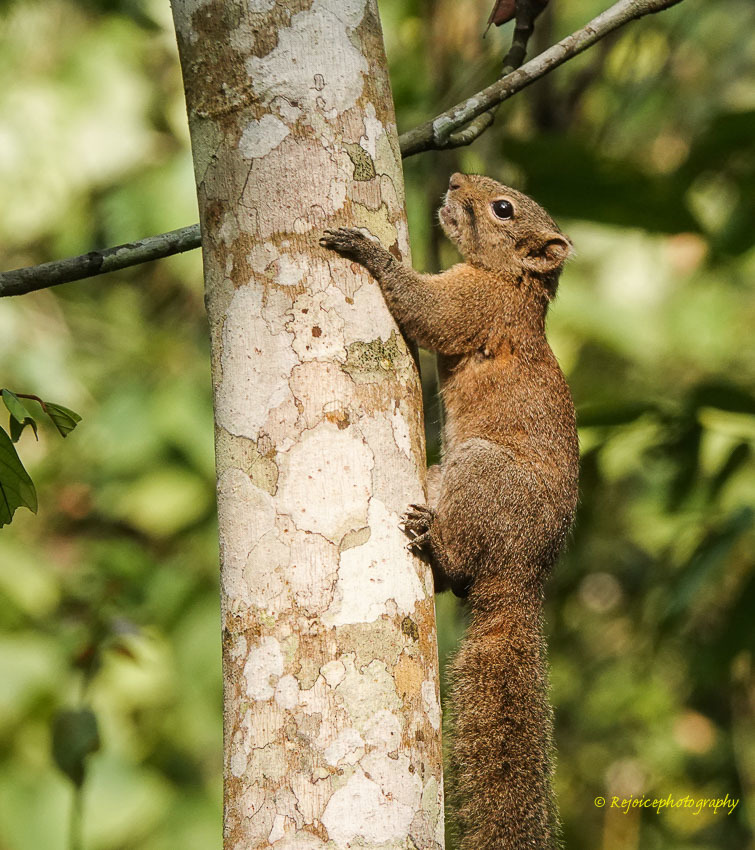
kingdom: Animalia
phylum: Chordata
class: Mammalia
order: Rodentia
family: Sciuridae
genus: Callosciurus
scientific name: Callosciurus pygerythrus
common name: Irrawaddy squirrel
